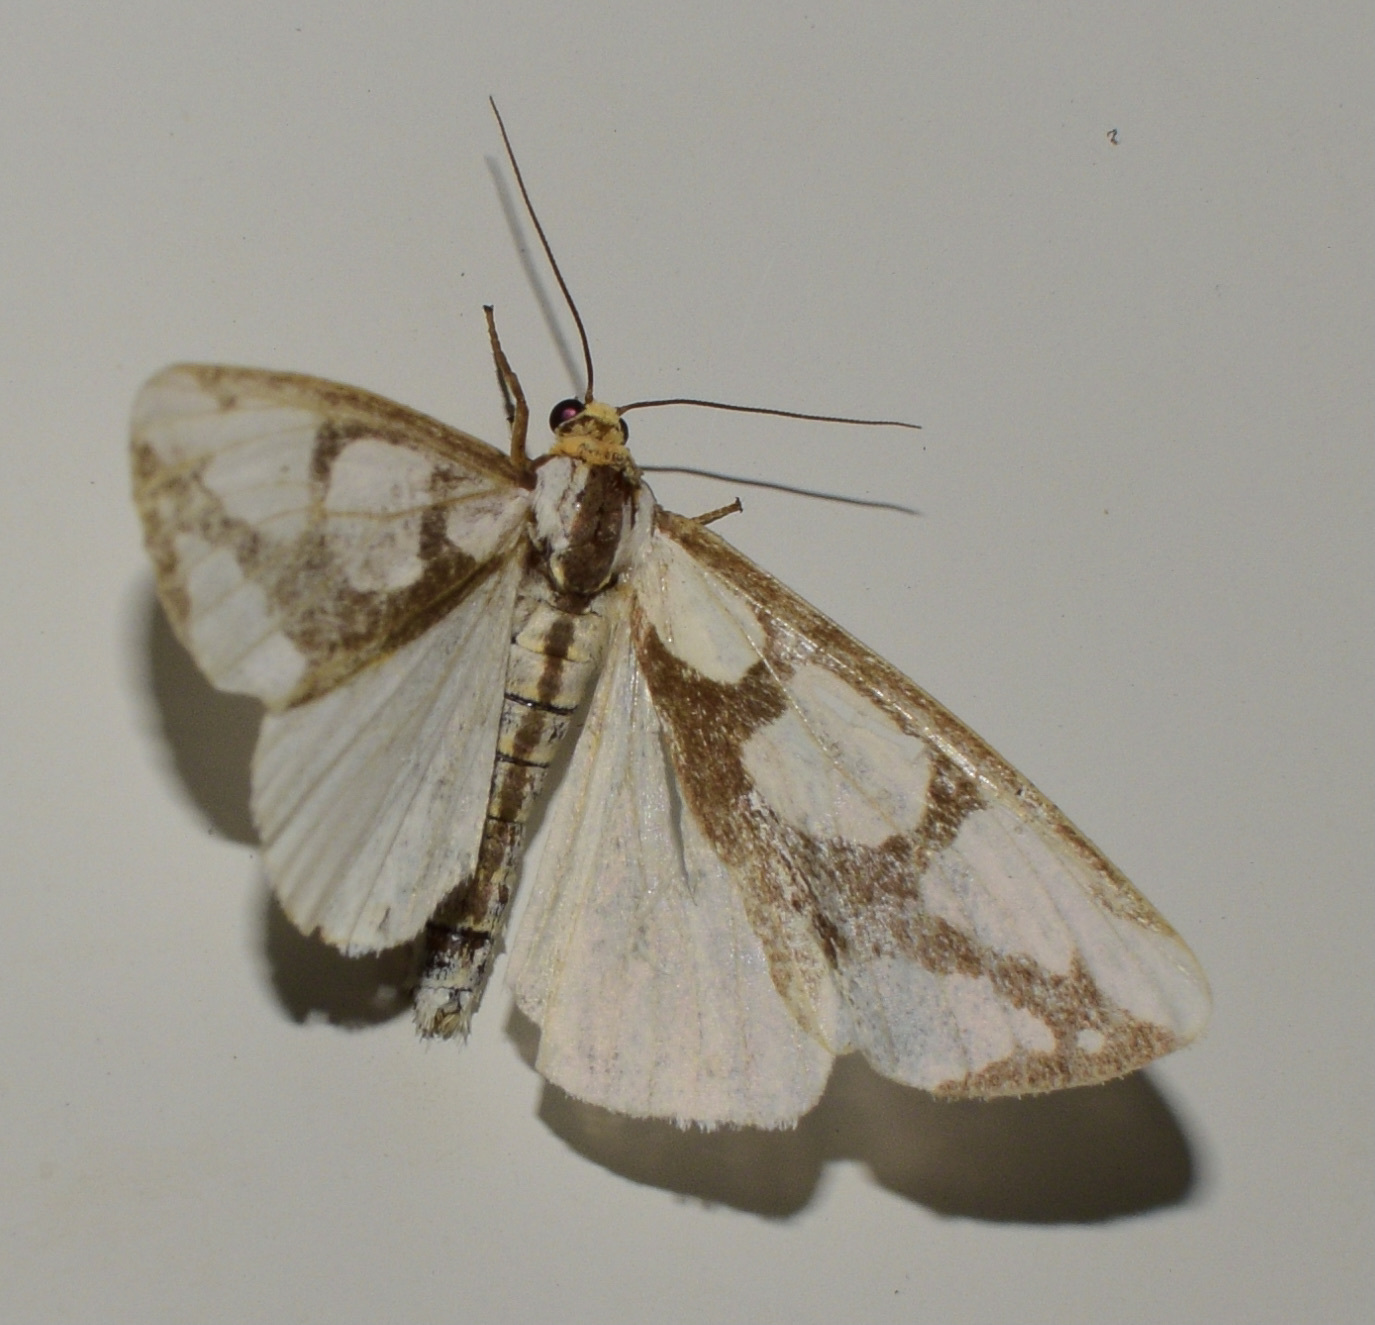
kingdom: Animalia
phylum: Arthropoda
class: Insecta
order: Lepidoptera
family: Erebidae
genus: Haploa
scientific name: Haploa lecontei
